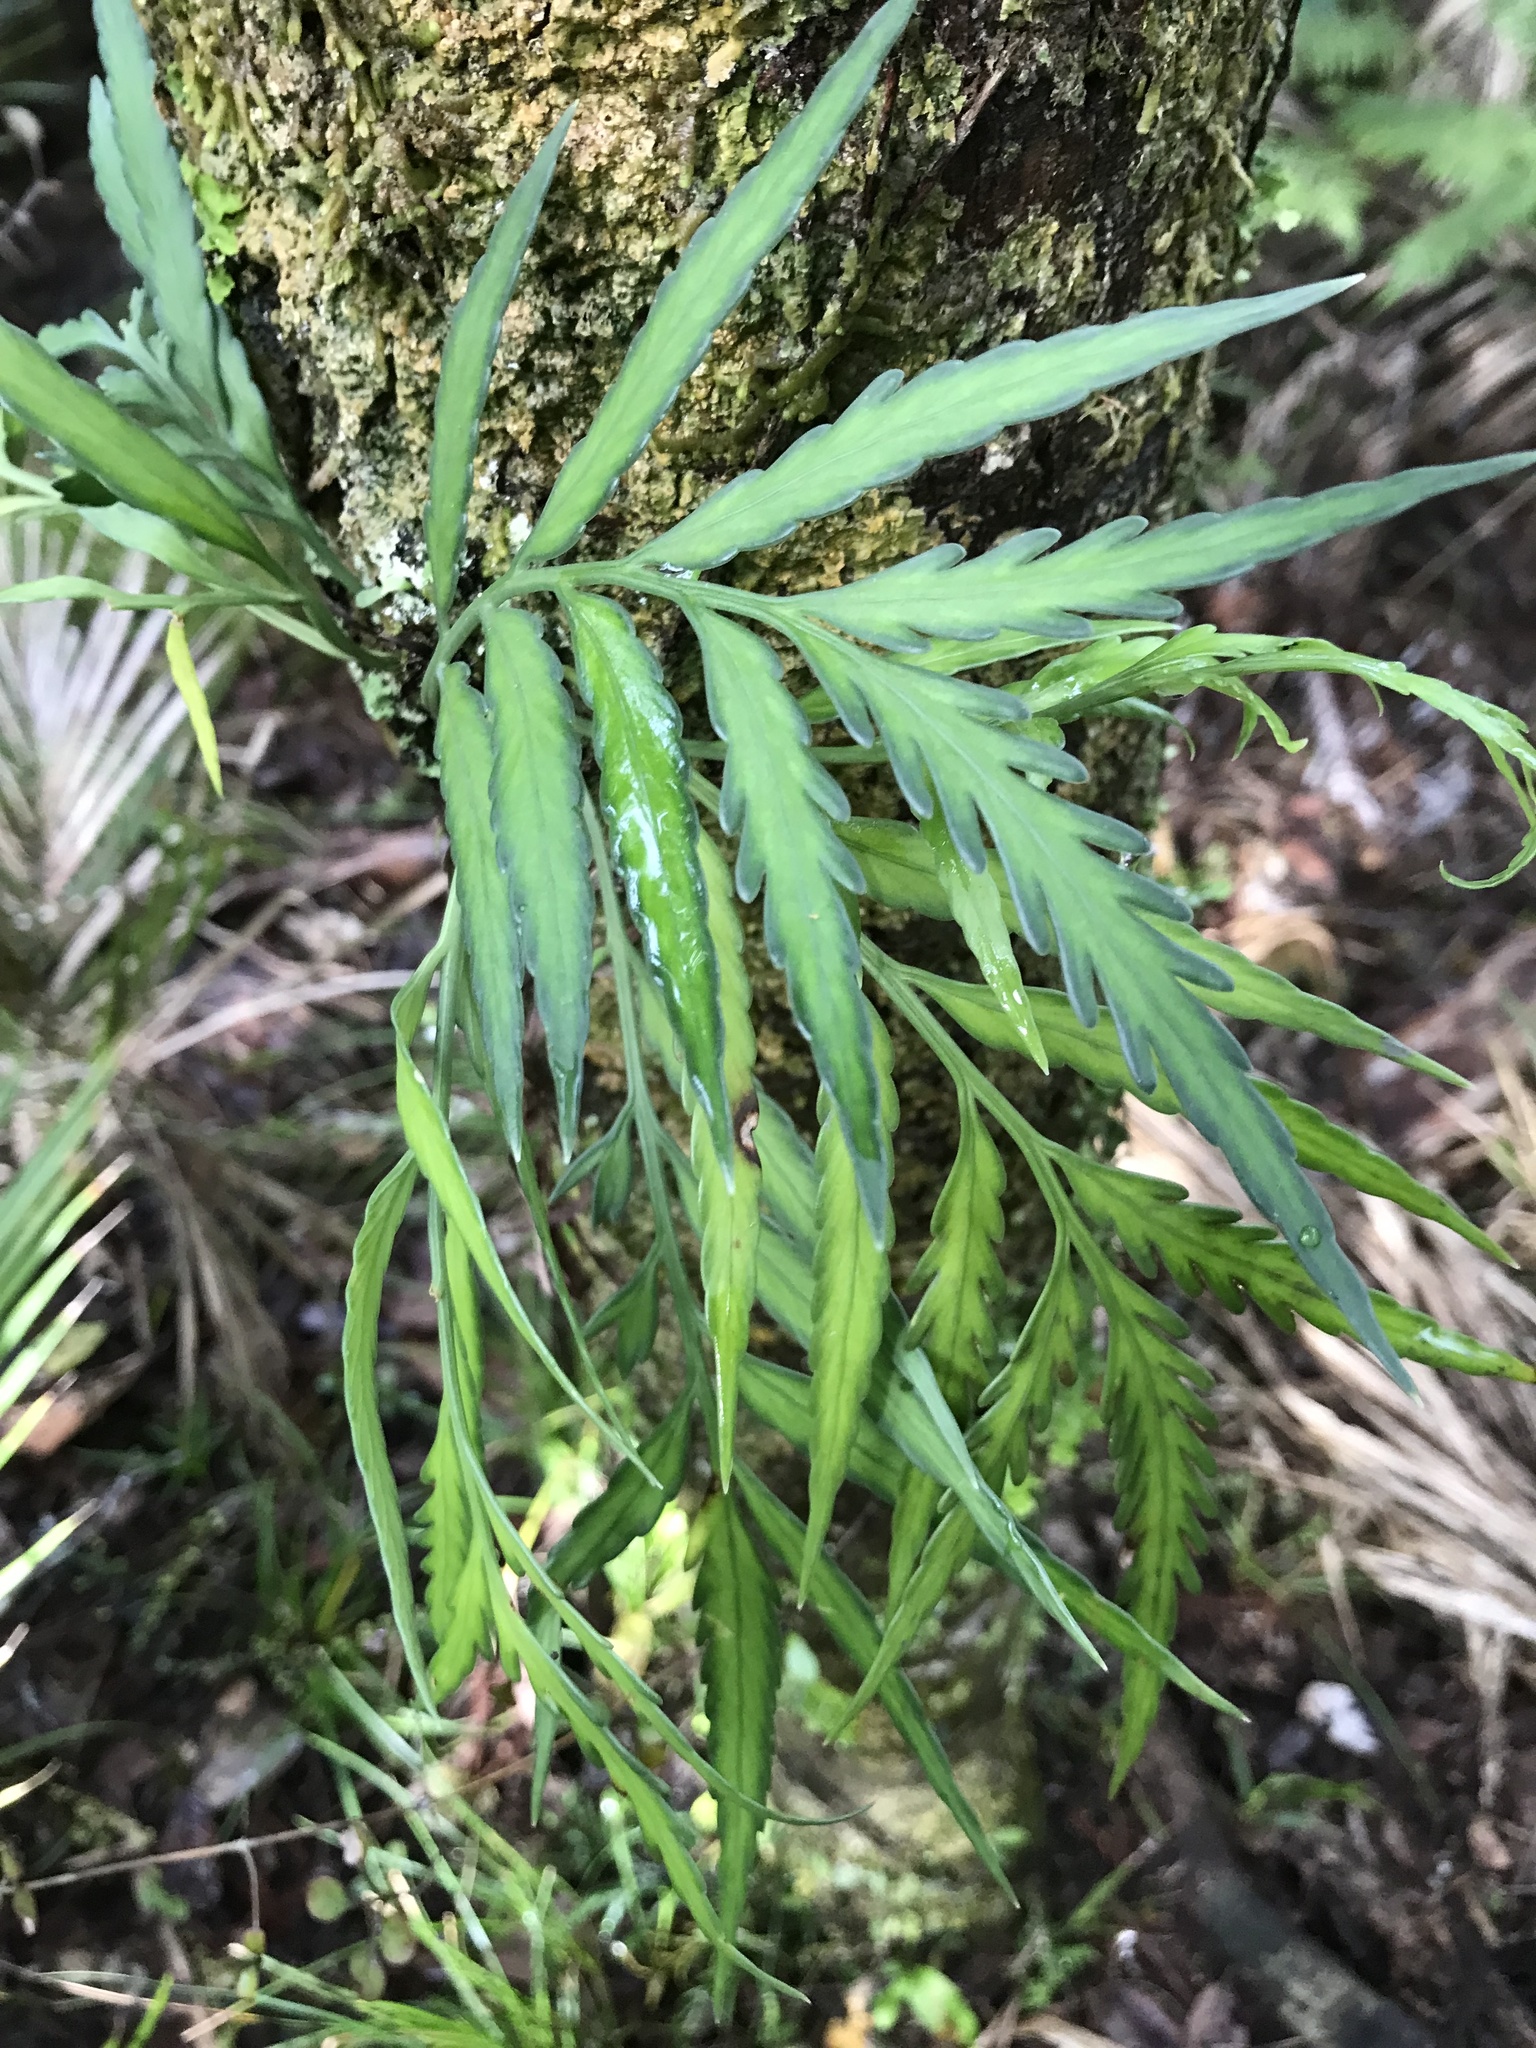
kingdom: Plantae
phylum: Tracheophyta
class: Polypodiopsida
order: Polypodiales
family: Aspleniaceae
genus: Asplenium
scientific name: Asplenium flaccidum
